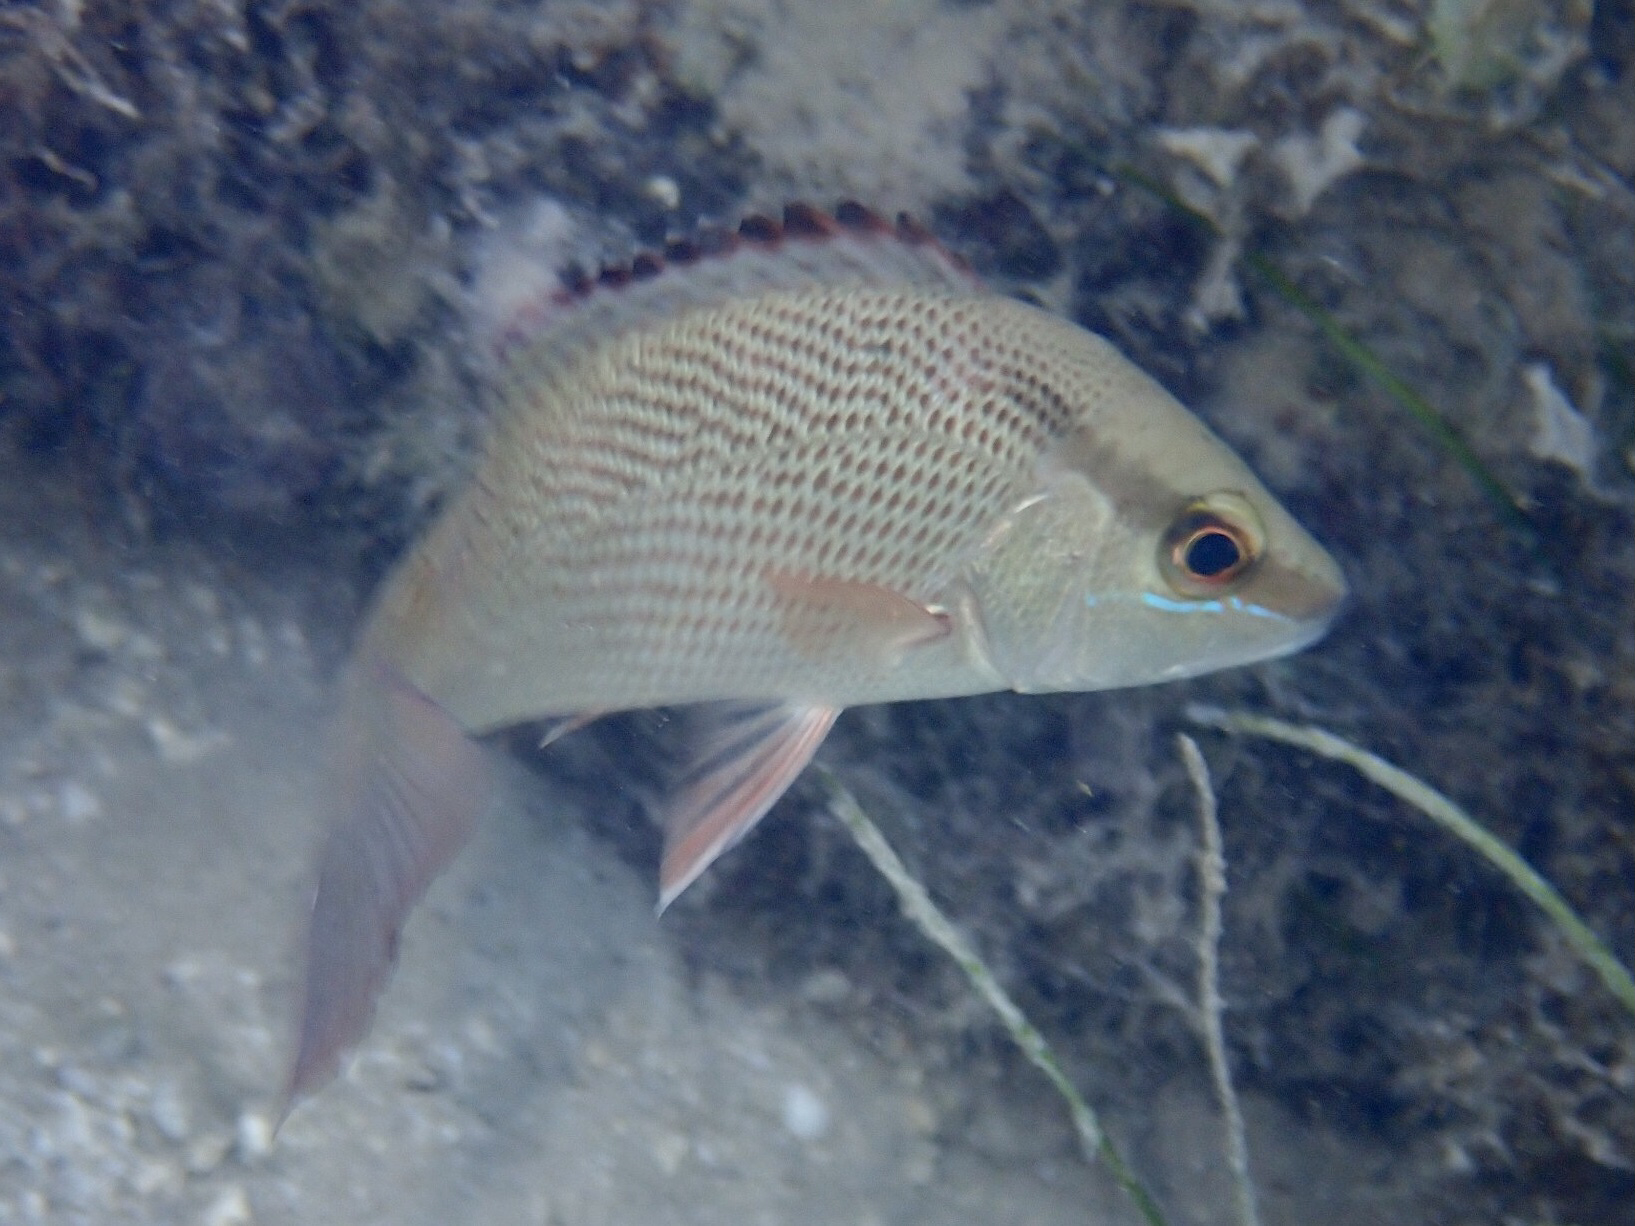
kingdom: Animalia
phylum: Chordata
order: Perciformes
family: Lutjanidae
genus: Lutjanus
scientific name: Lutjanus griseus
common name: Gray snapper
